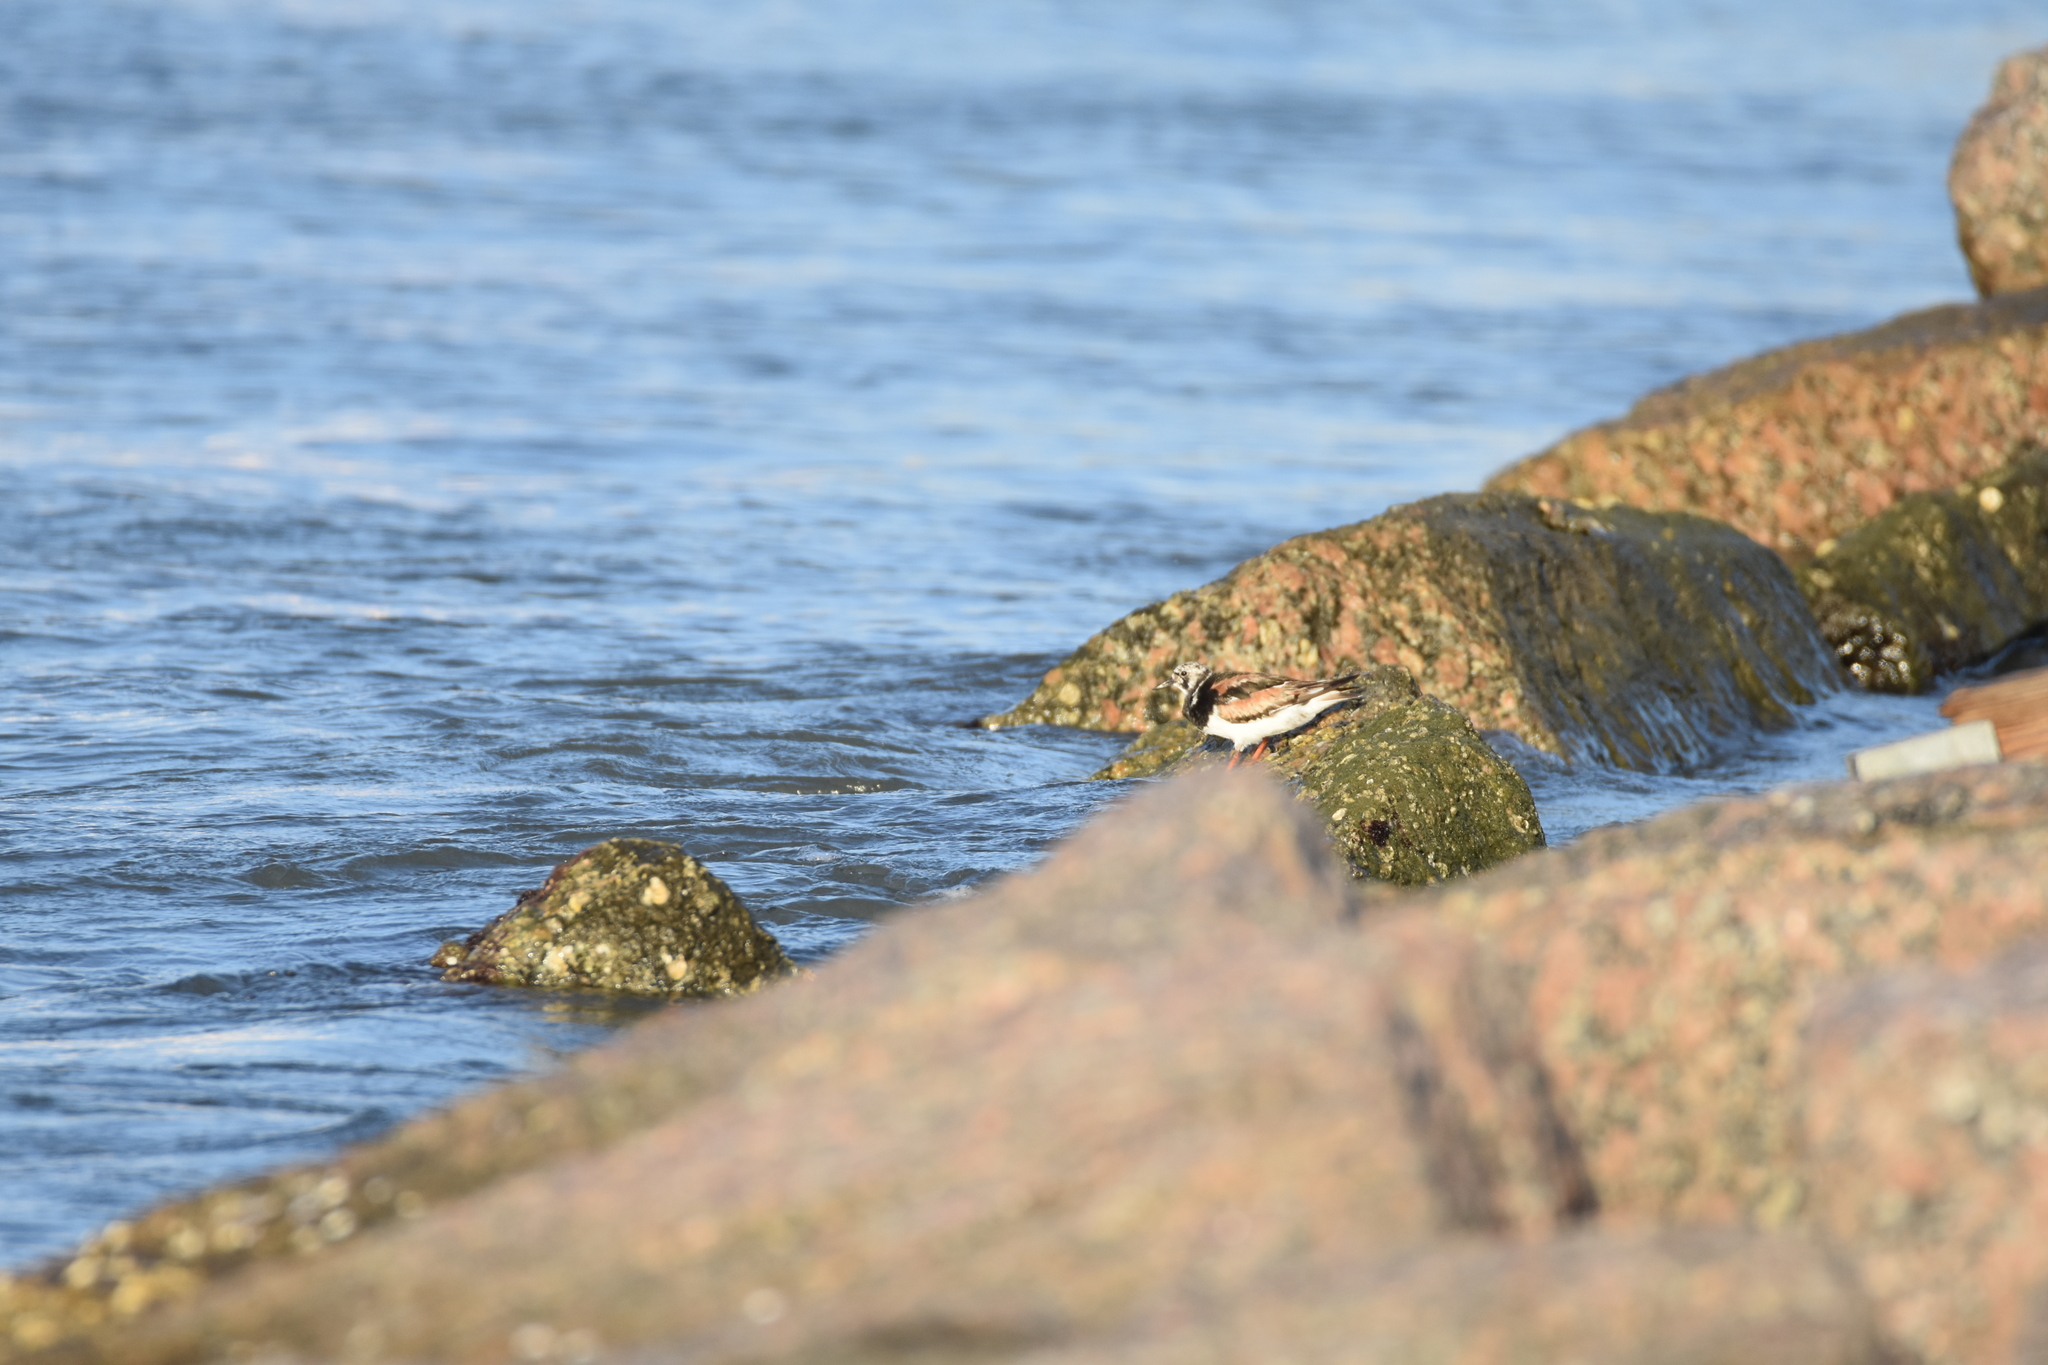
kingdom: Animalia
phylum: Chordata
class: Aves
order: Charadriiformes
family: Scolopacidae
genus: Arenaria
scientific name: Arenaria interpres
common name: Ruddy turnstone
